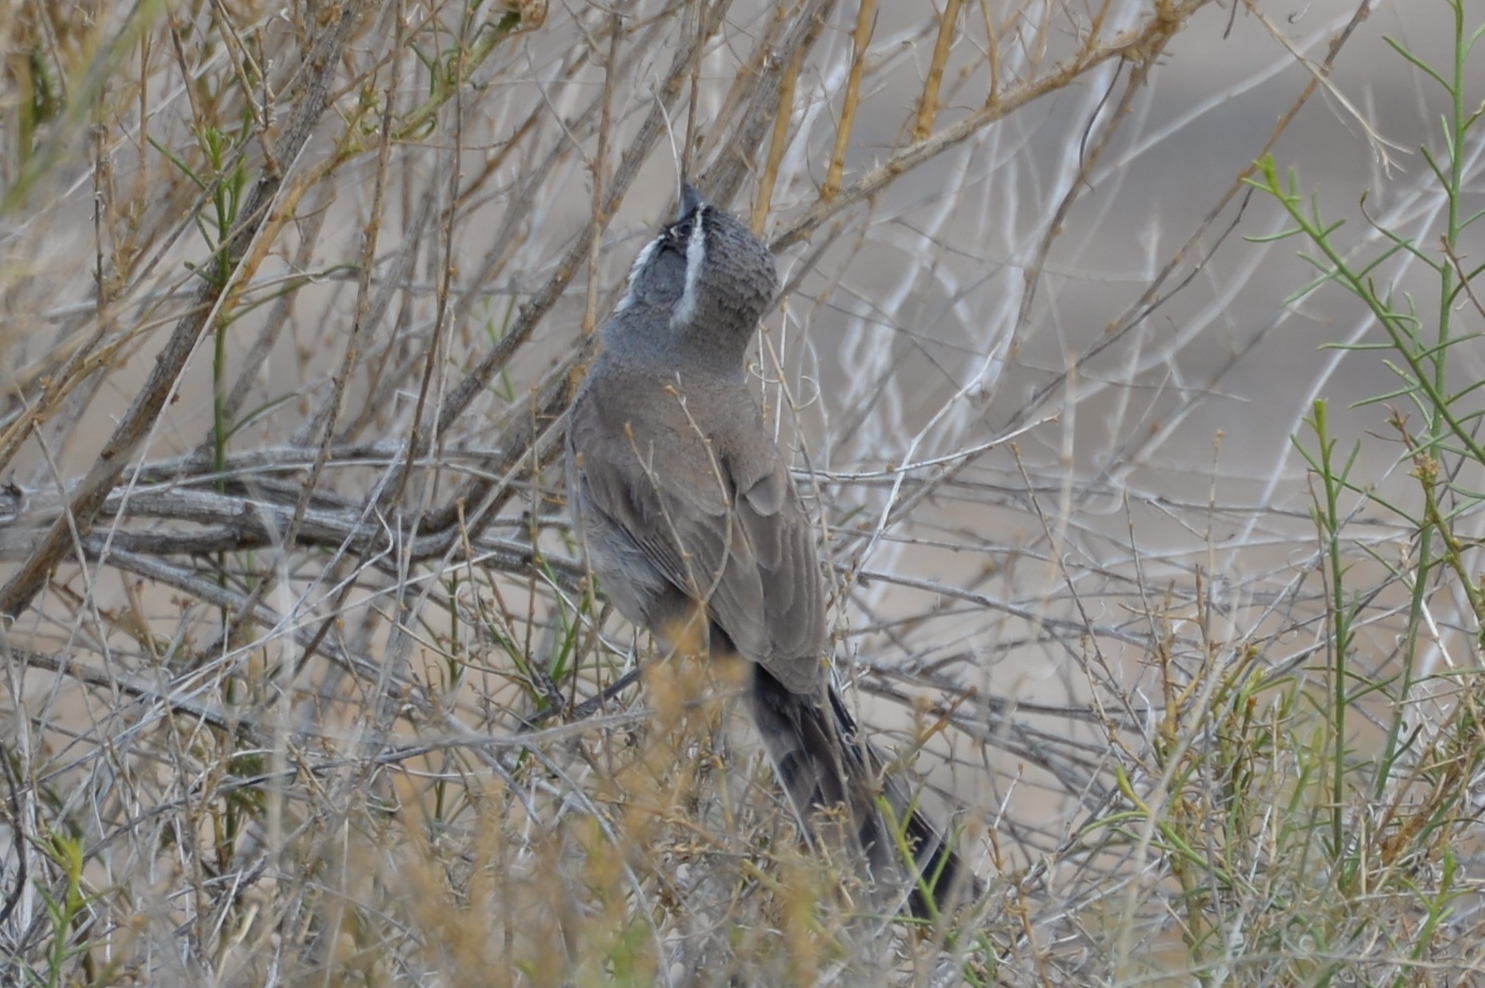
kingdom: Animalia
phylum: Chordata
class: Aves
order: Passeriformes
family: Passerellidae
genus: Amphispiza
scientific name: Amphispiza bilineata
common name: Black-throated sparrow
